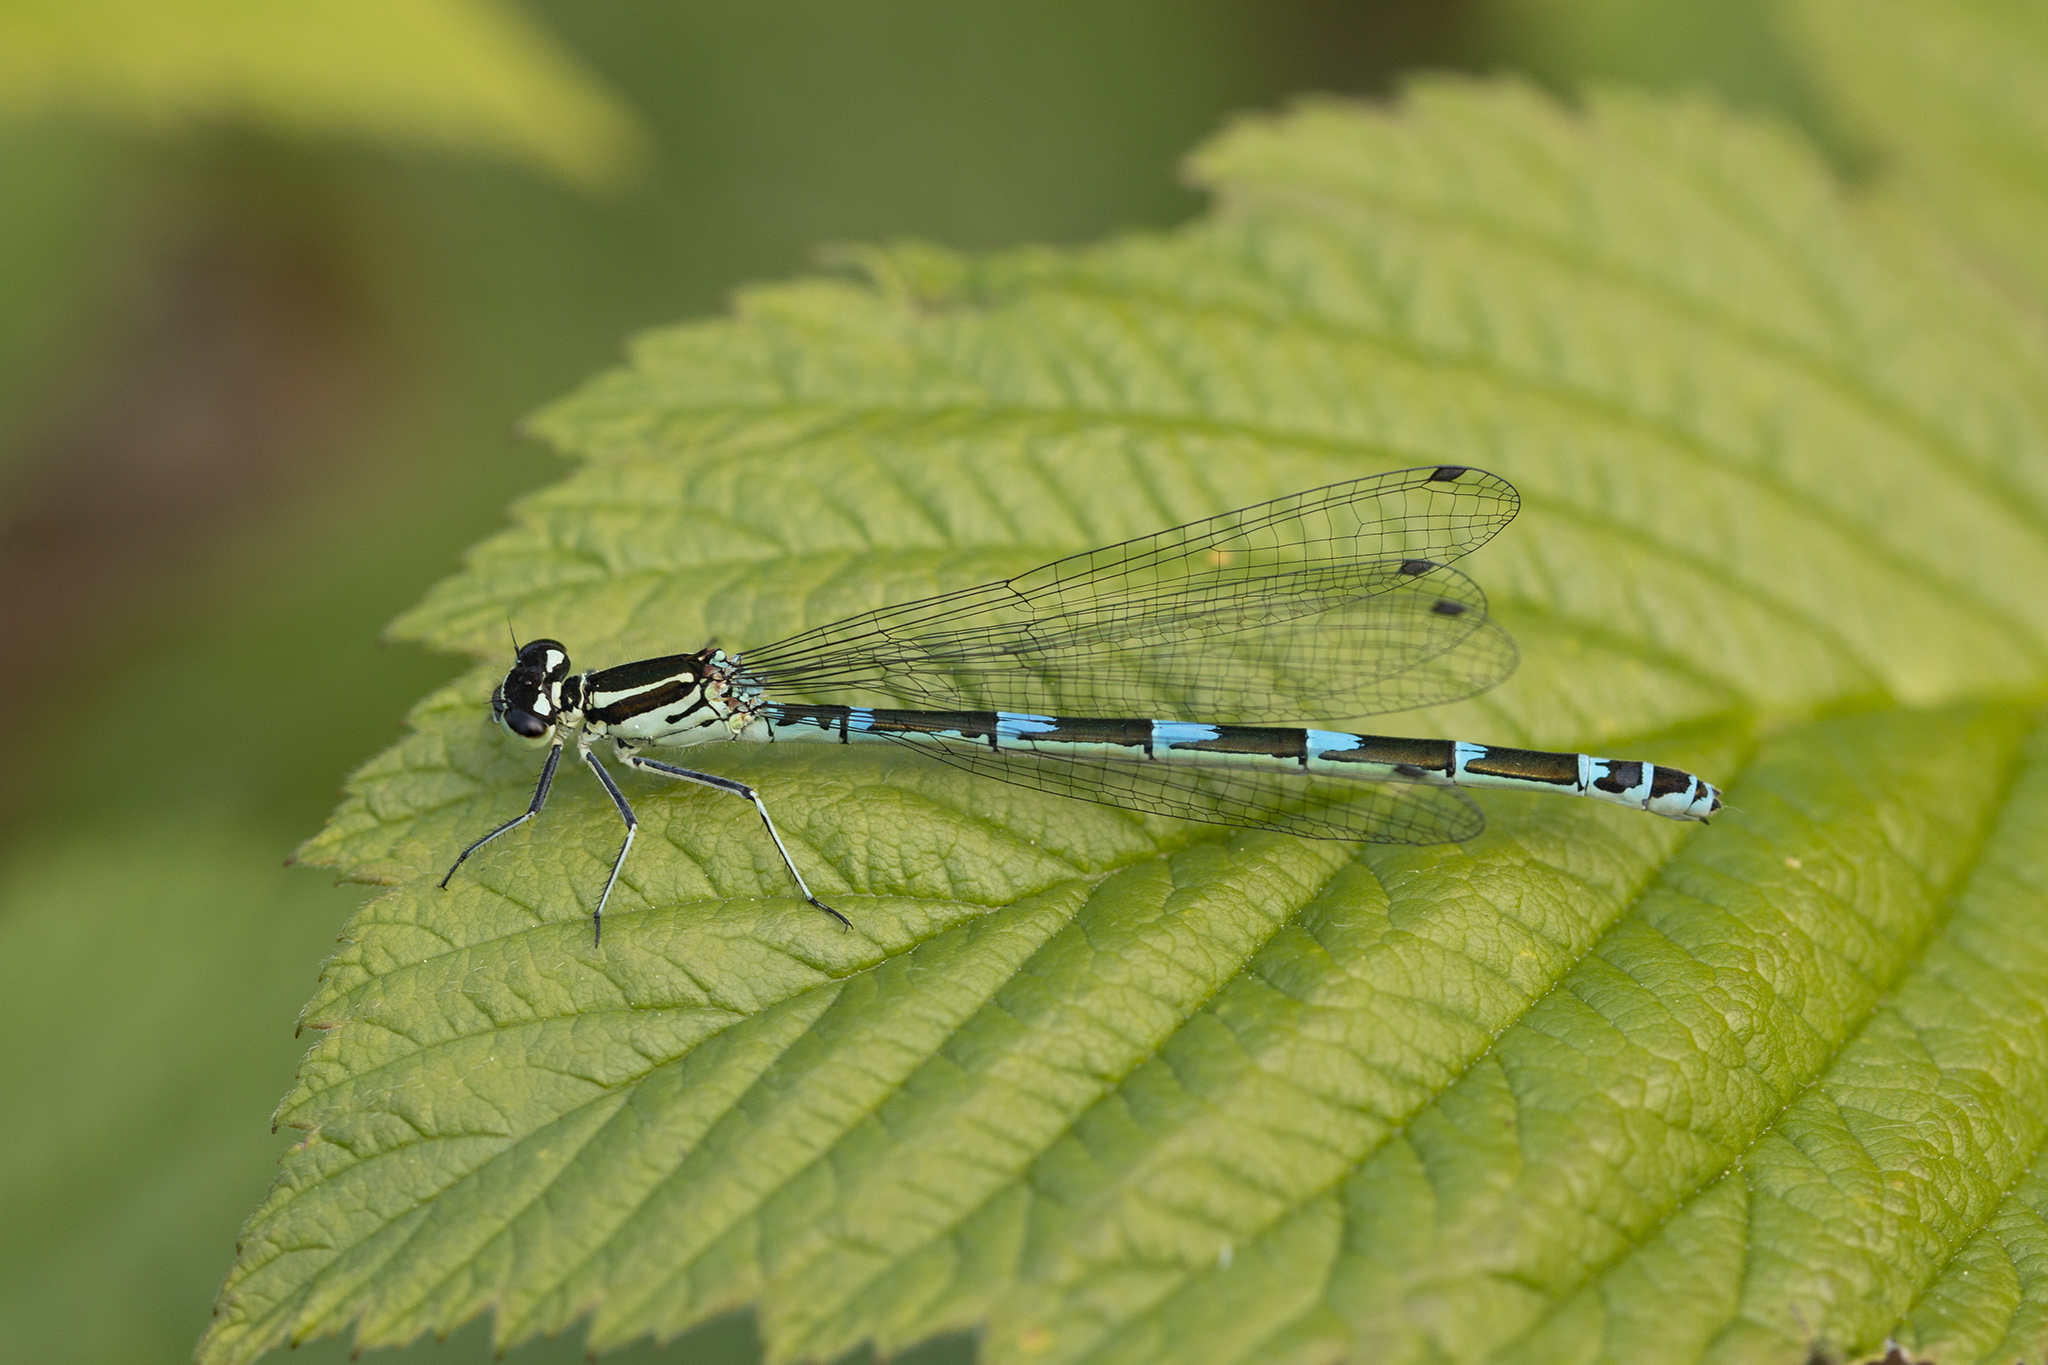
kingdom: Animalia
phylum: Arthropoda
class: Insecta
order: Odonata
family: Coenagrionidae
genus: Coenagrion
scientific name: Coenagrion puella
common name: Azure damselfly
